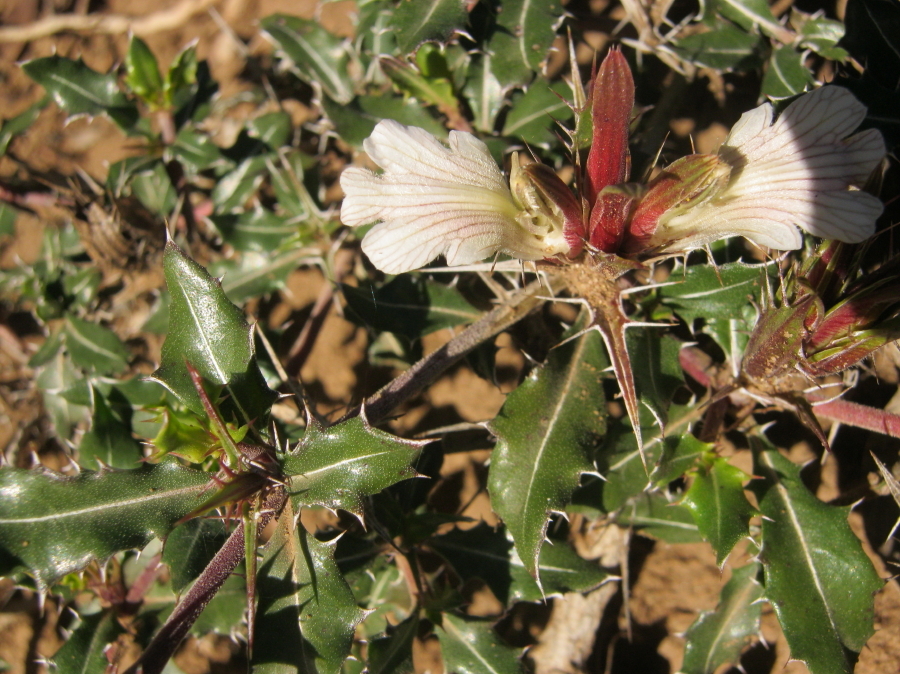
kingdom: Plantae
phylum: Tracheophyta
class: Magnoliopsida
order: Lamiales
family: Acanthaceae
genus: Blepharis
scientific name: Blepharis capensis
